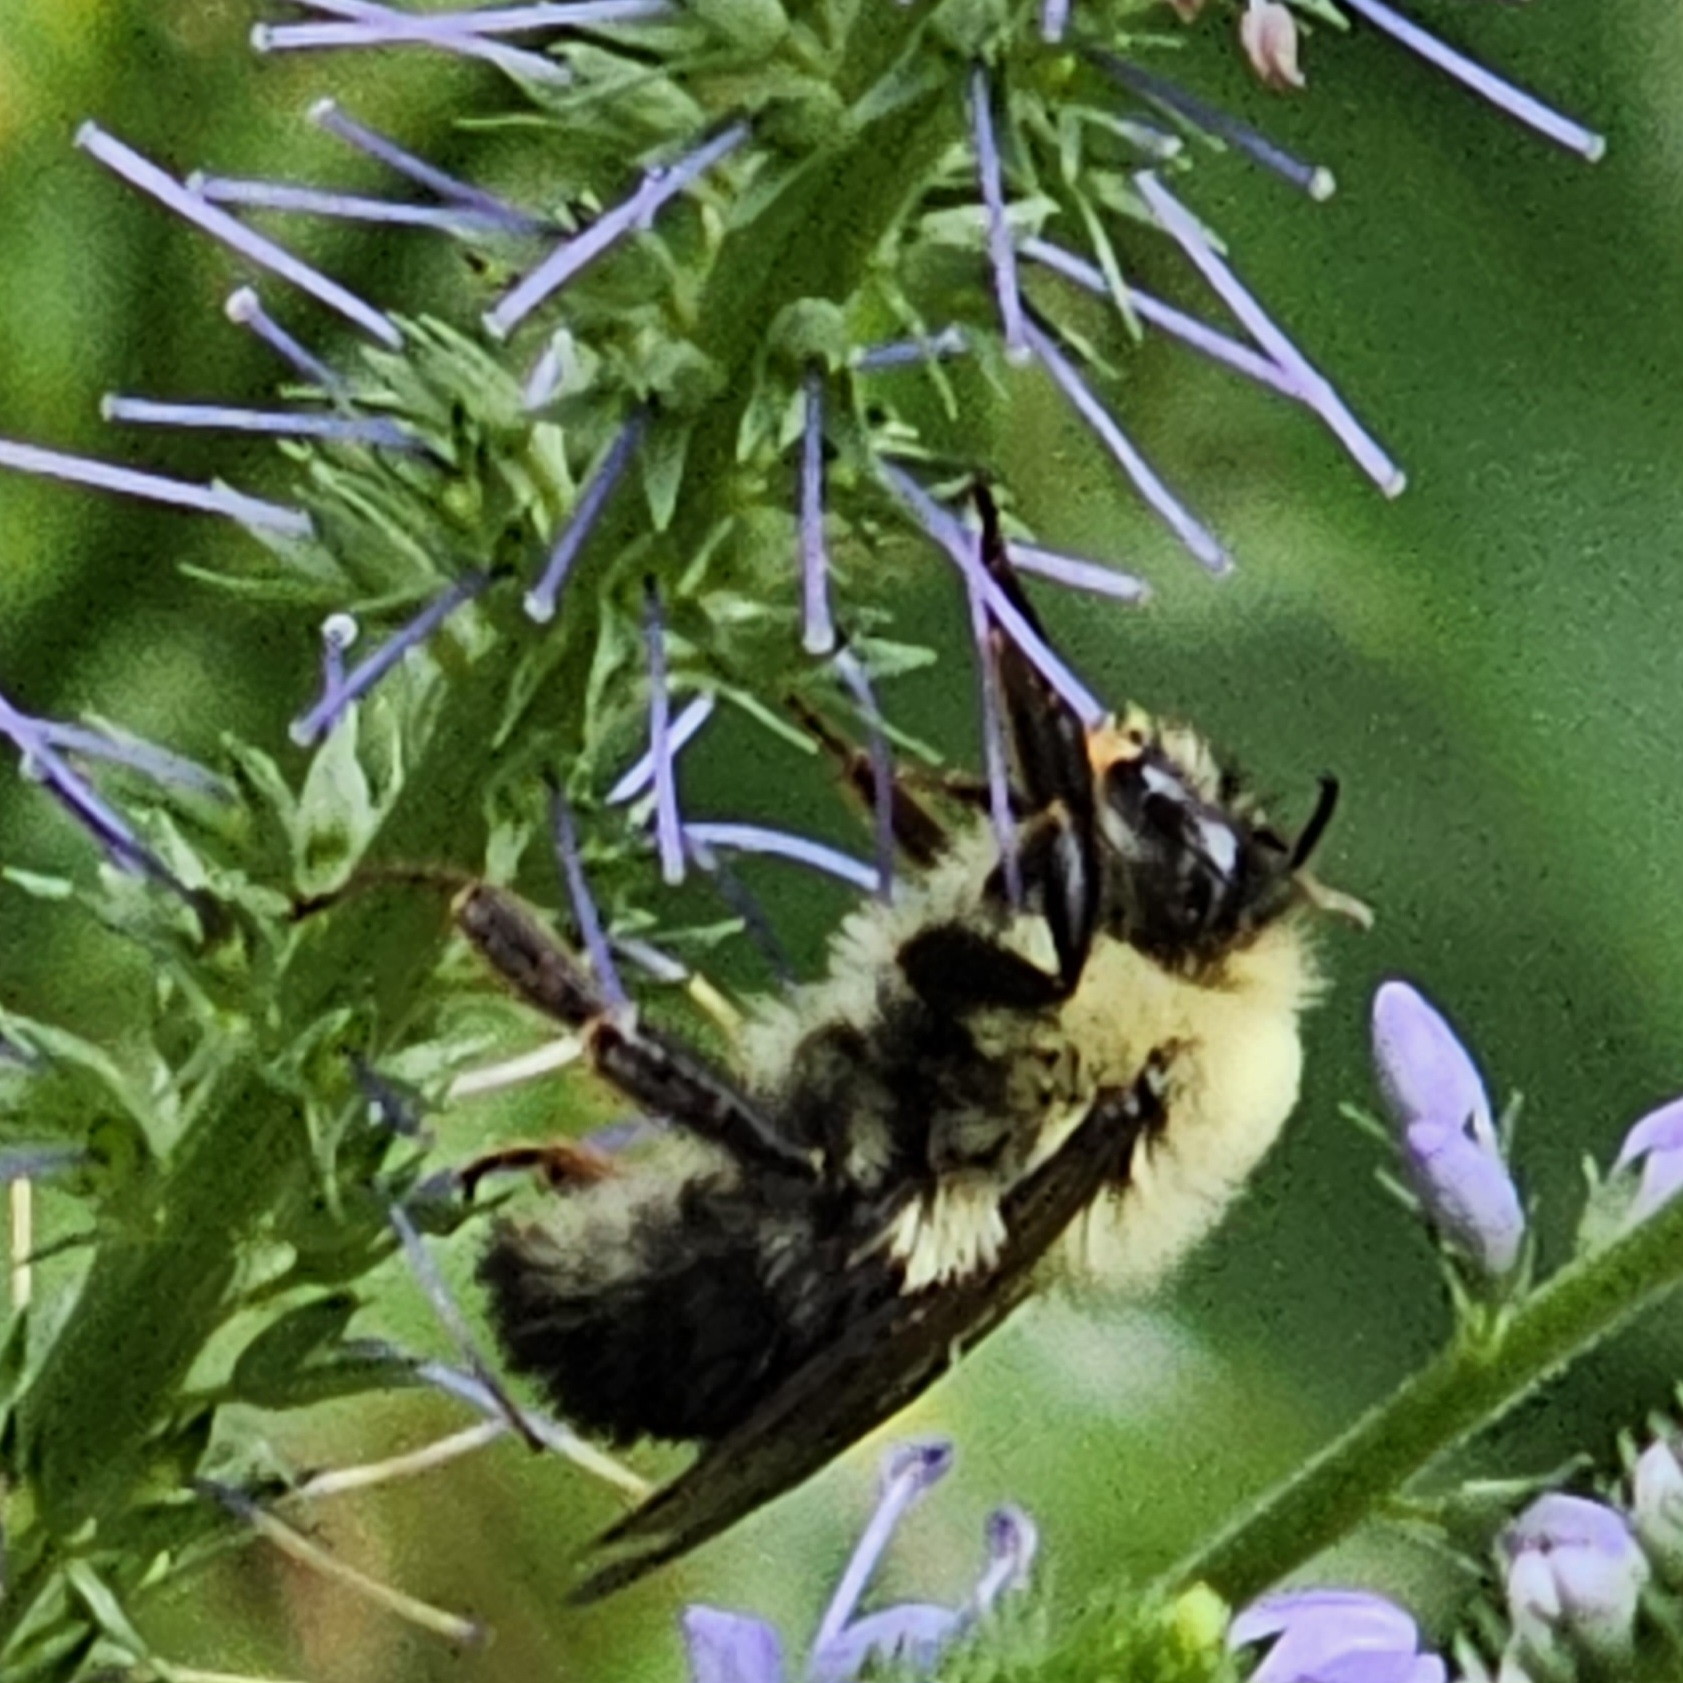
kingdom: Animalia
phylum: Arthropoda
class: Insecta
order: Hymenoptera
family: Apidae
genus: Bombus
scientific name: Bombus bimaculatus
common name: Two-spotted bumble bee
